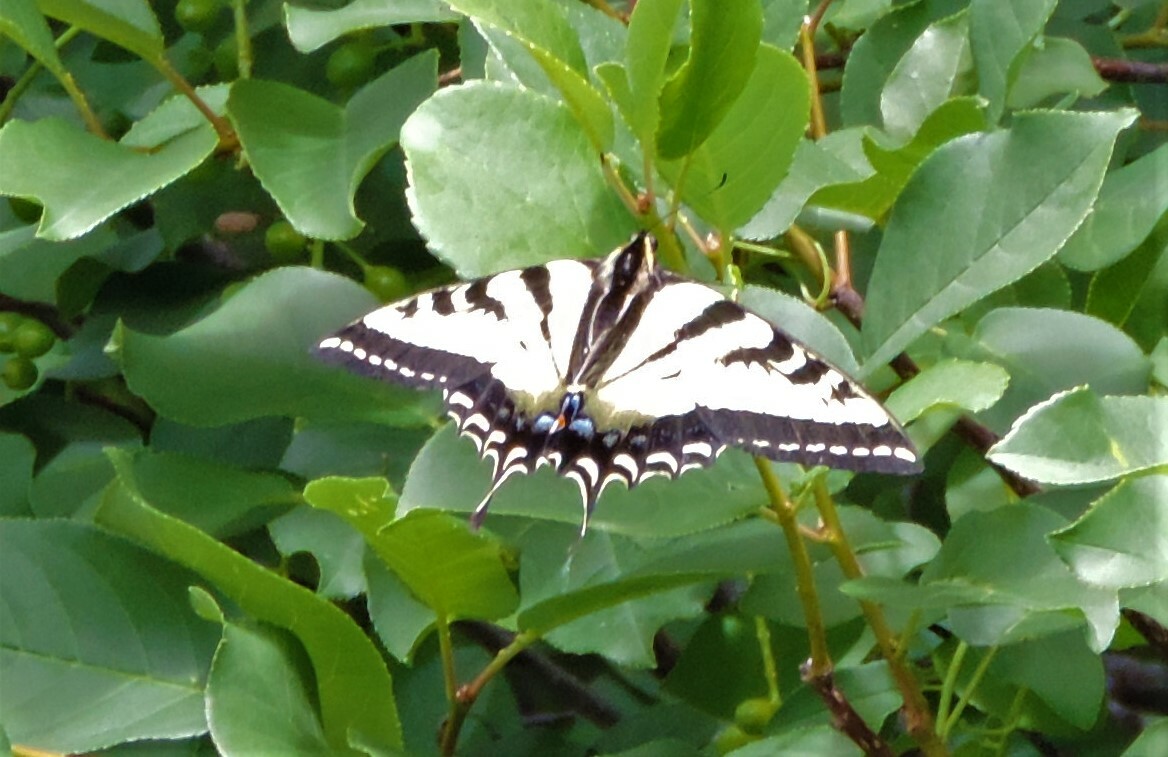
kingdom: Animalia
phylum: Arthropoda
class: Insecta
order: Lepidoptera
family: Papilionidae
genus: Papilio
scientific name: Papilio rutulus
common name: Western tiger swallowtail
